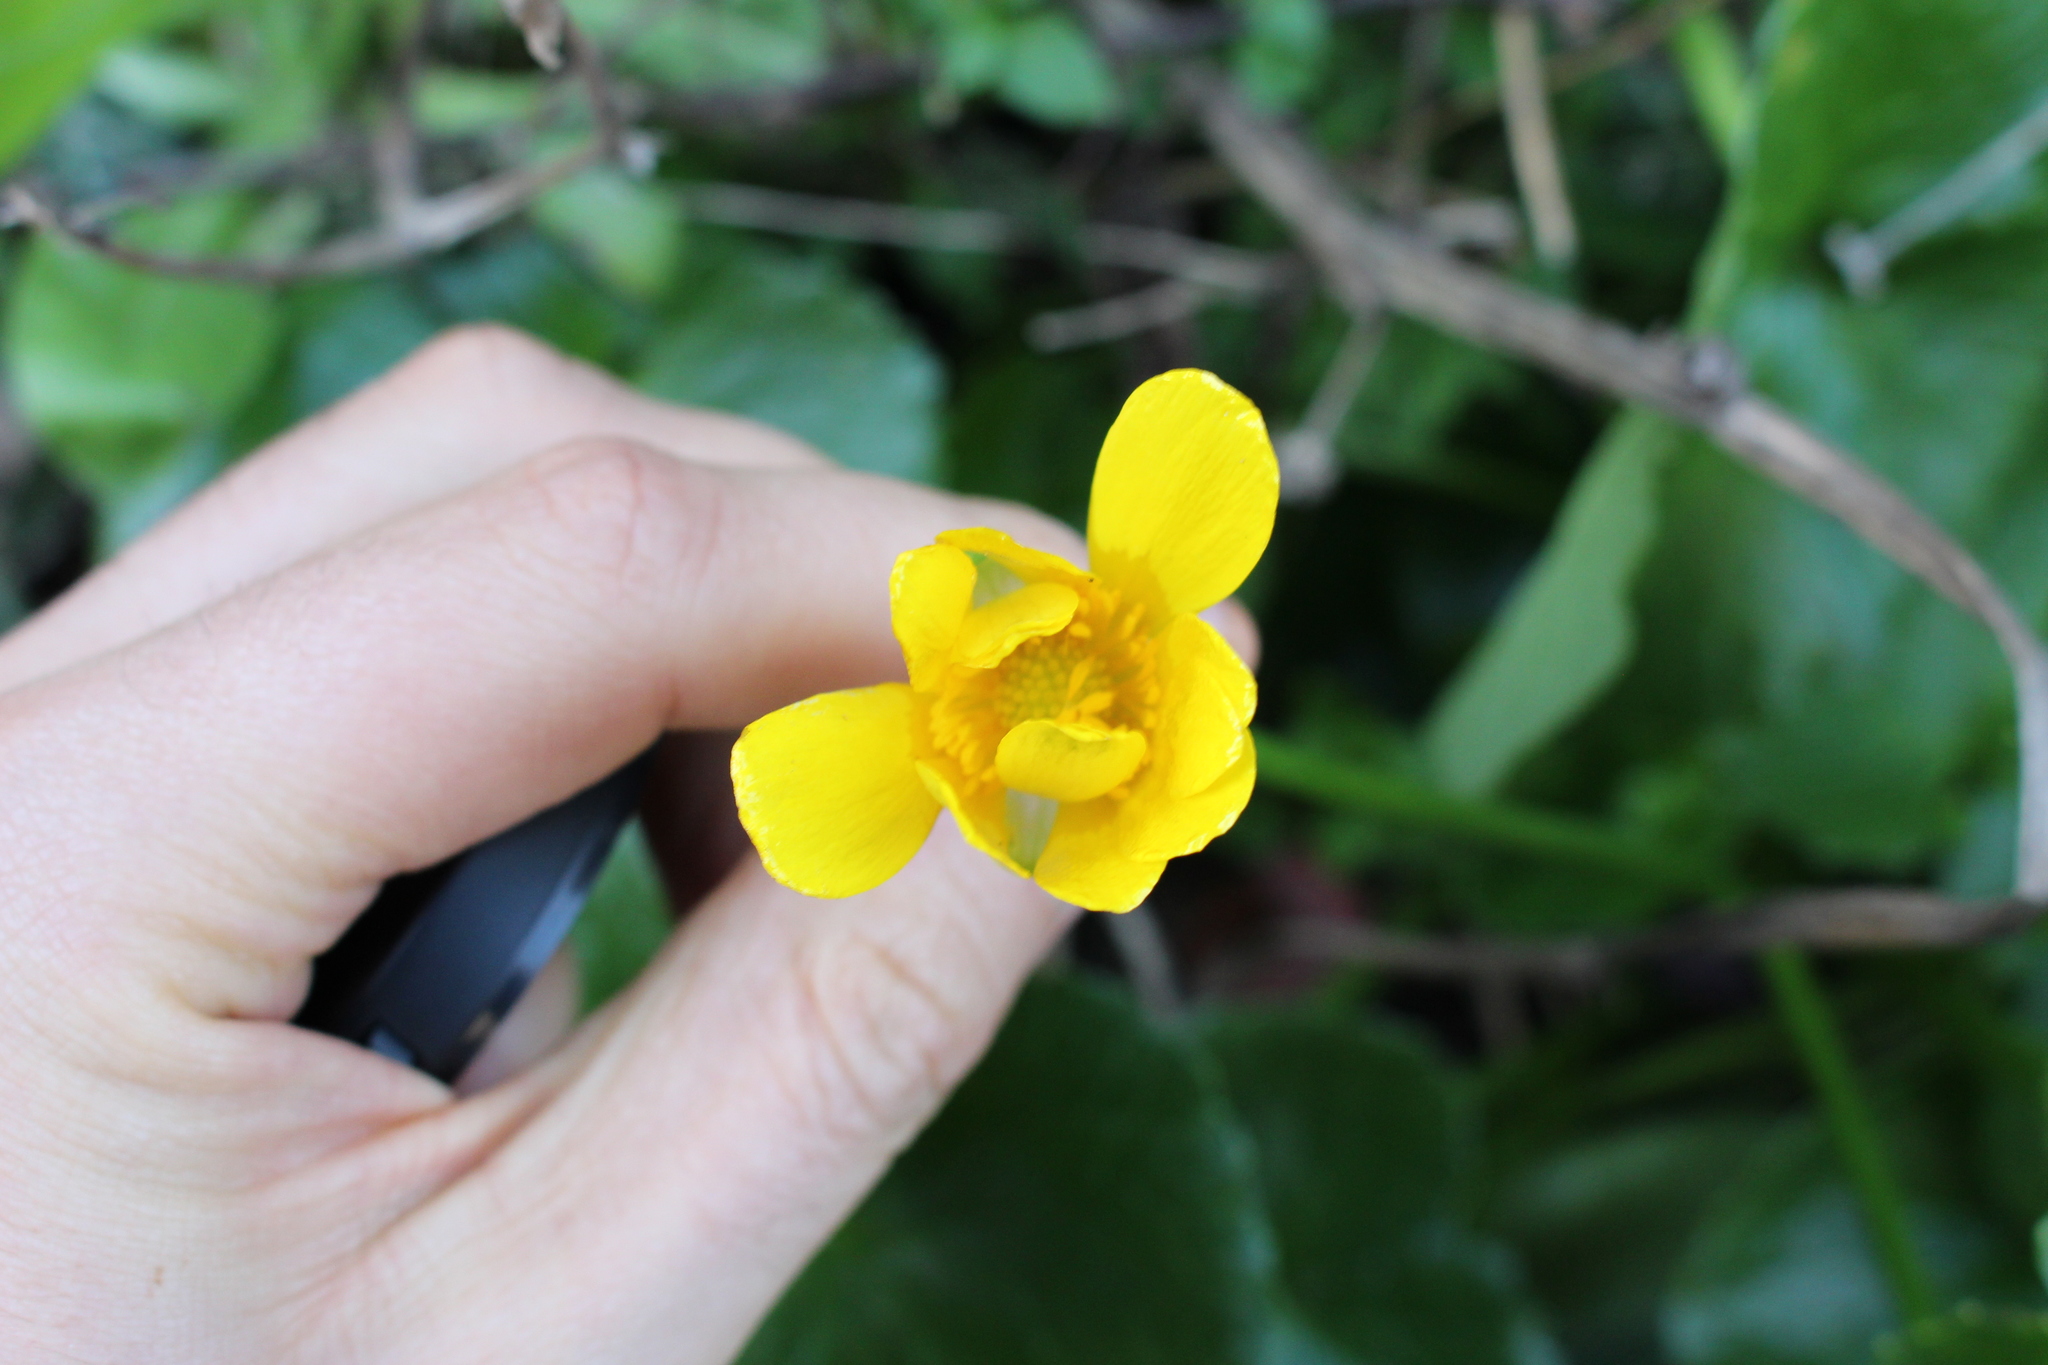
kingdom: Plantae
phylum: Tracheophyta
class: Magnoliopsida
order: Ranunculales
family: Ranunculaceae
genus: Ficaria
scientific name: Ficaria verna
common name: Lesser celandine
